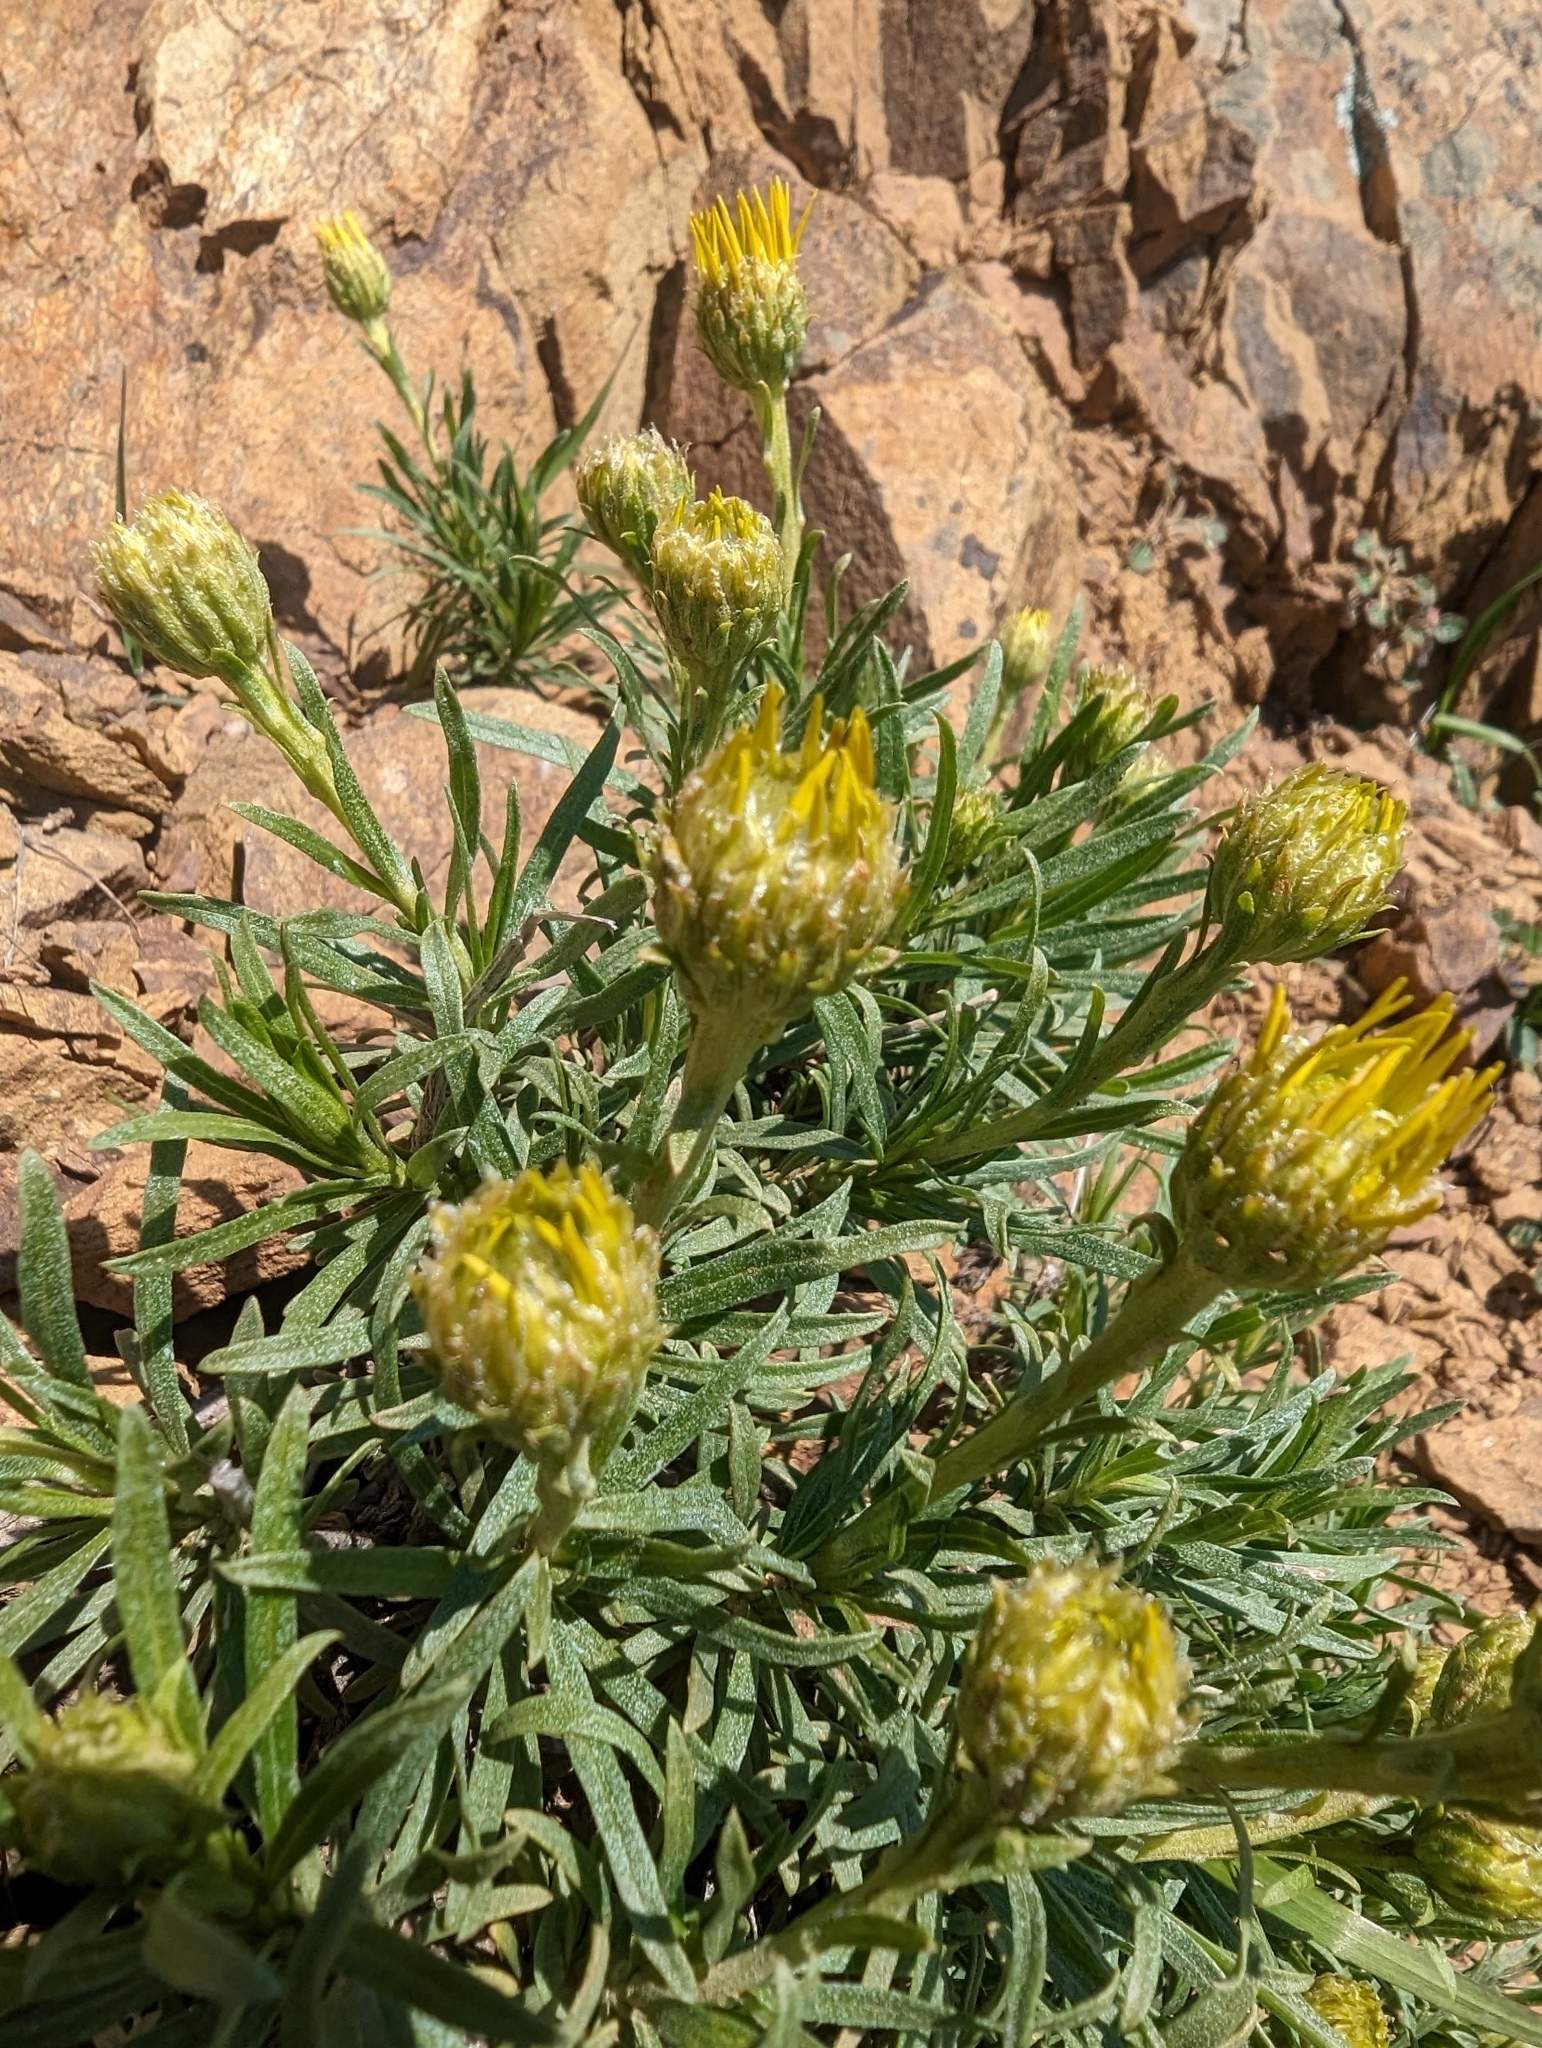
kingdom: Plantae
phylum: Tracheophyta
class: Magnoliopsida
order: Asterales
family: Asteraceae
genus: Ericameria
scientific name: Ericameria linearifolia
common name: Interior goldenbush
